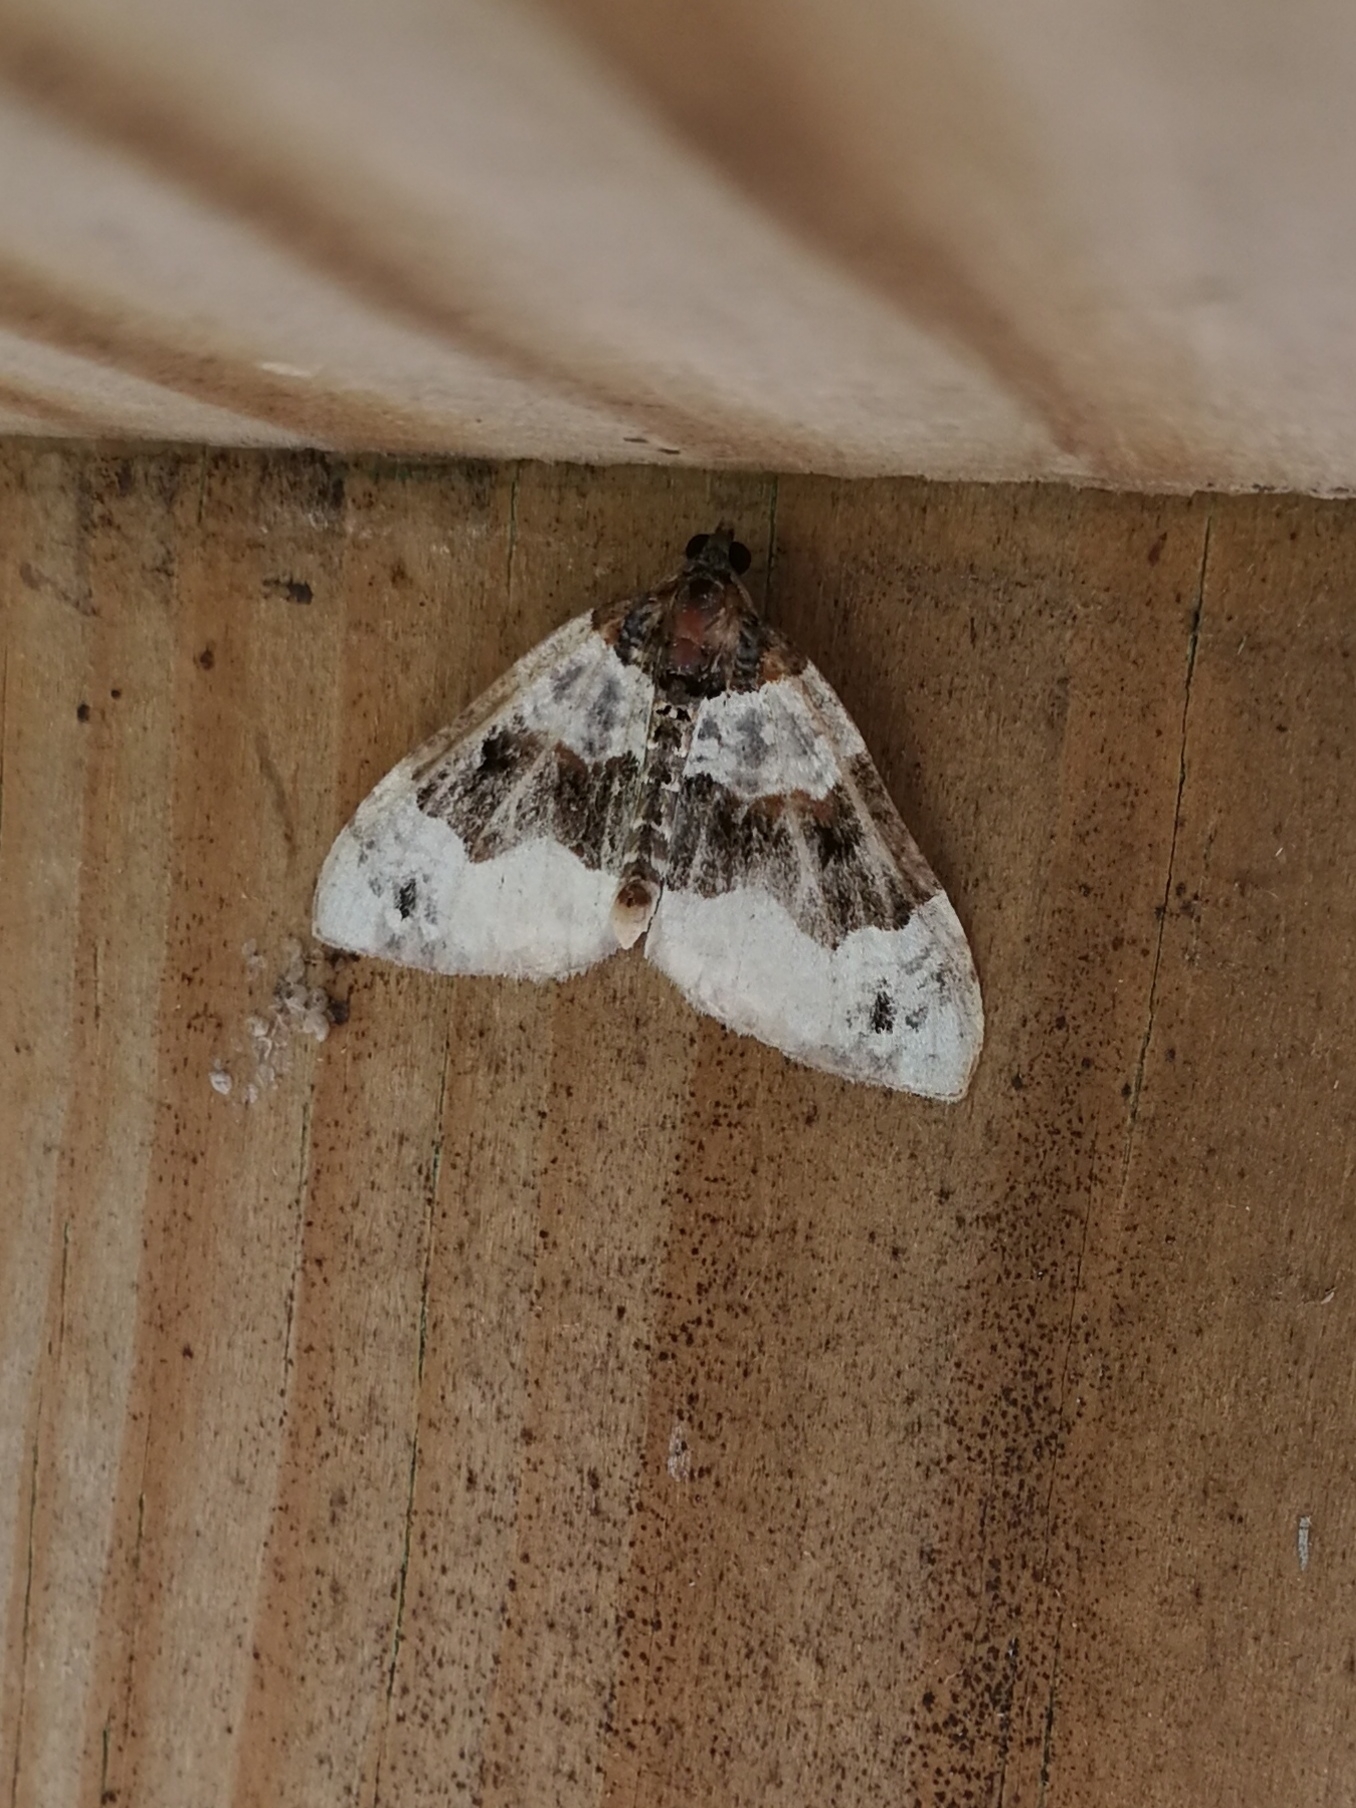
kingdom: Animalia
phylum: Arthropoda
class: Insecta
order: Lepidoptera
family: Geometridae
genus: Cosmorhoe
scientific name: Cosmorhoe ocellata
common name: Purple bar
